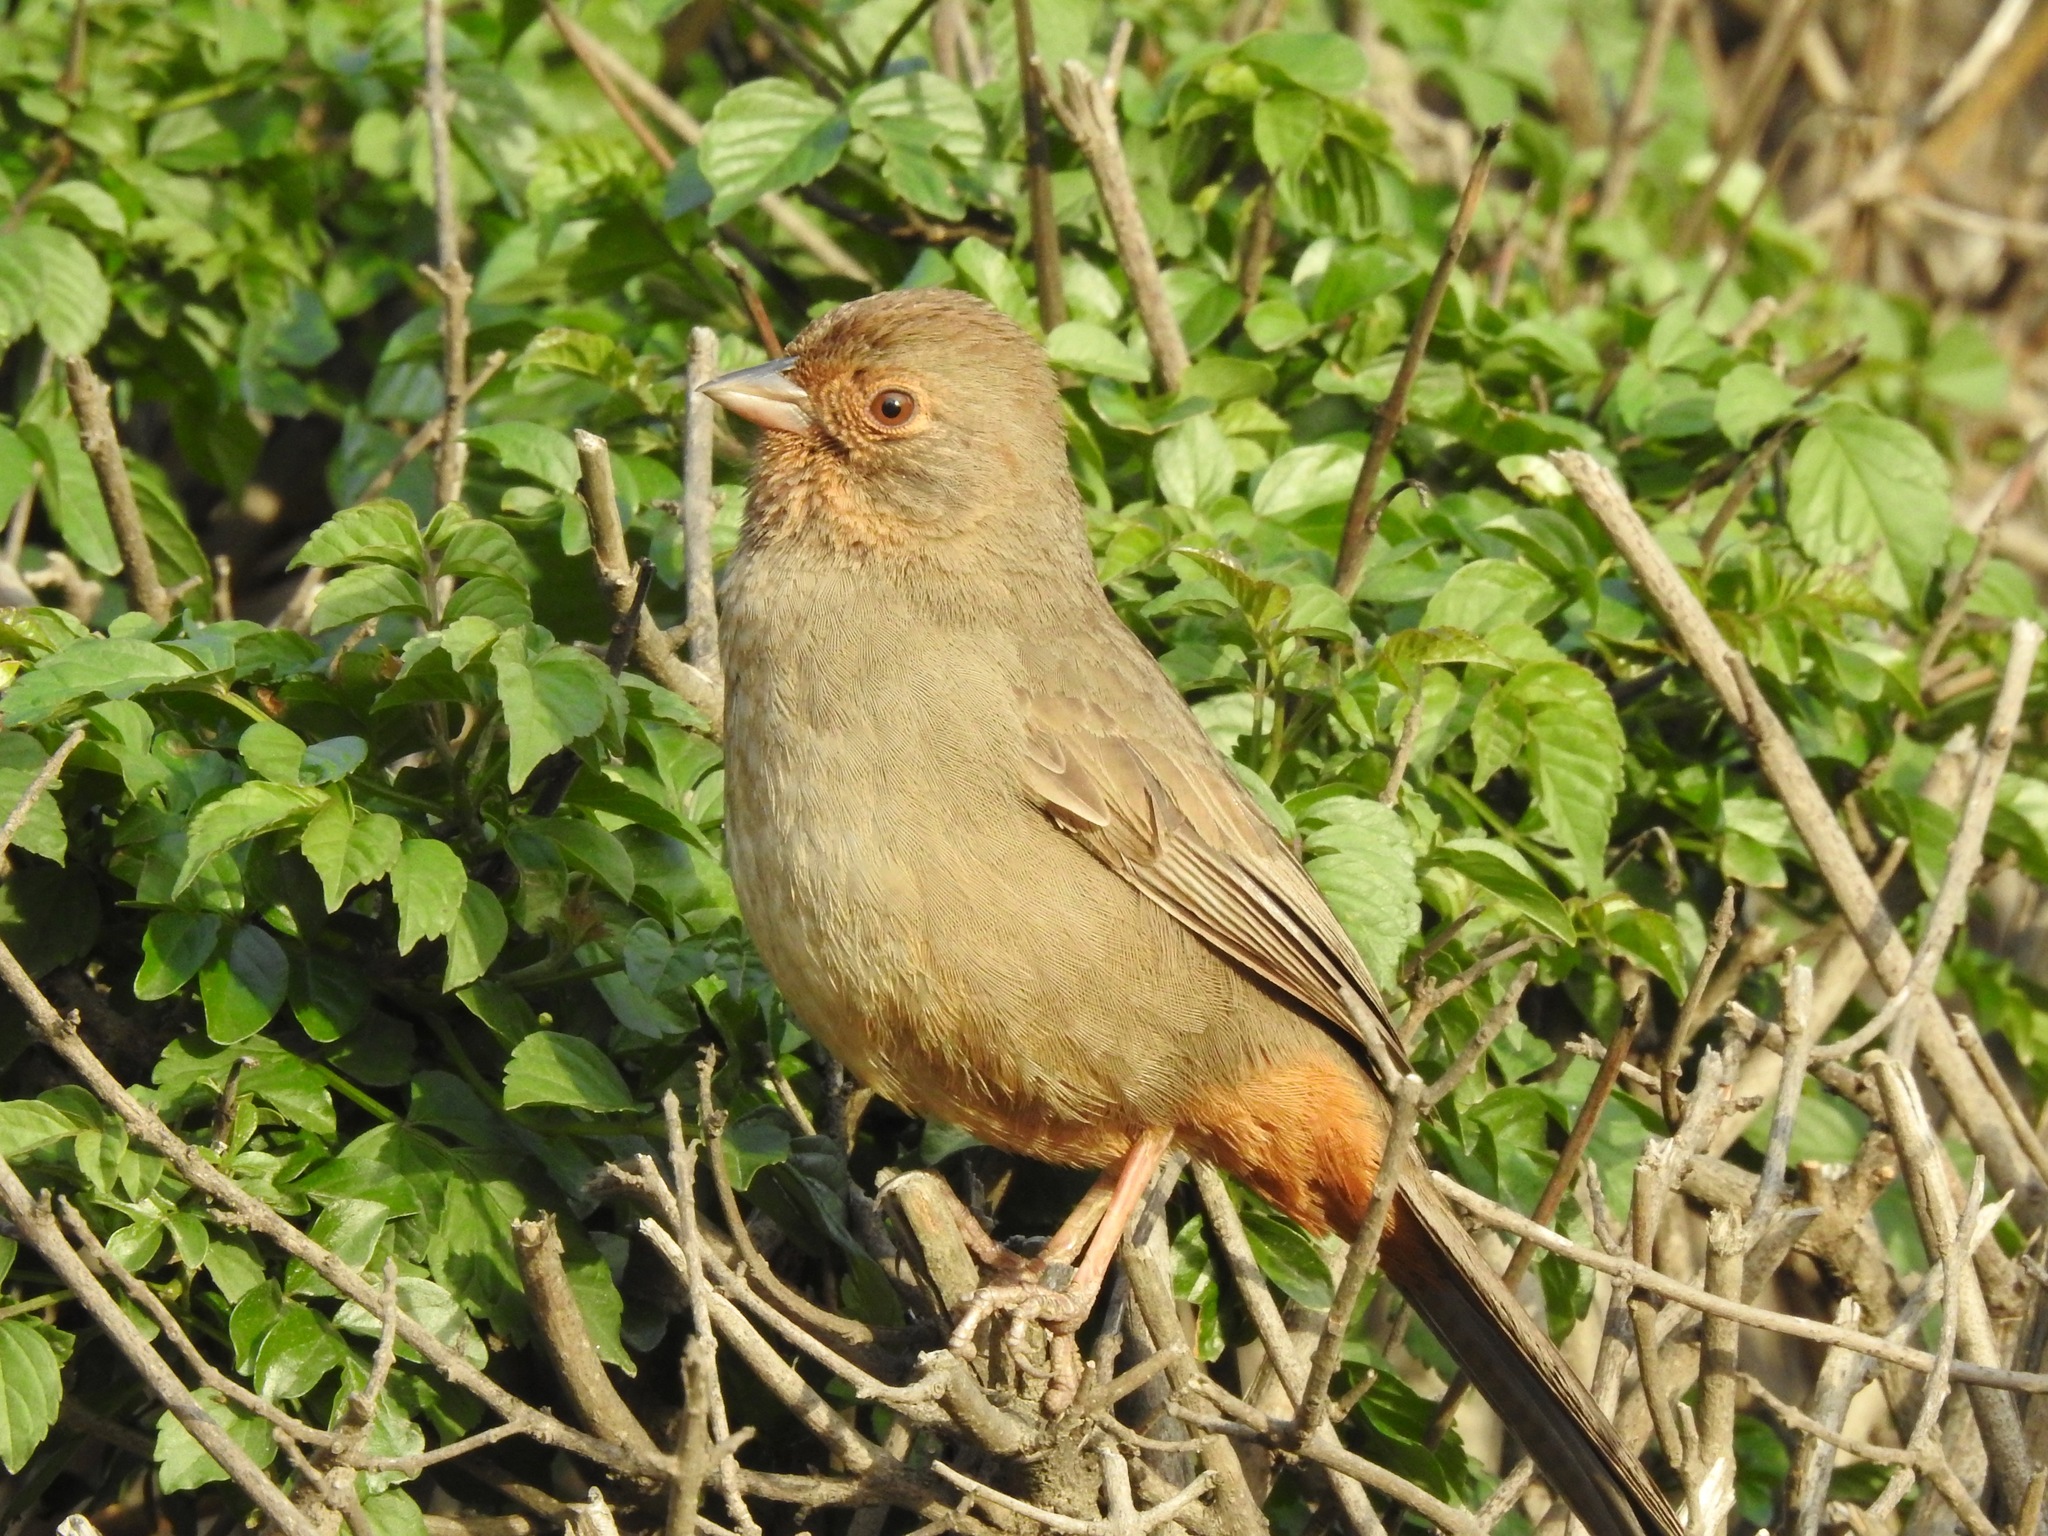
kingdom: Animalia
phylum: Chordata
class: Aves
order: Passeriformes
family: Passerellidae
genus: Melozone
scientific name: Melozone crissalis
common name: California towhee
